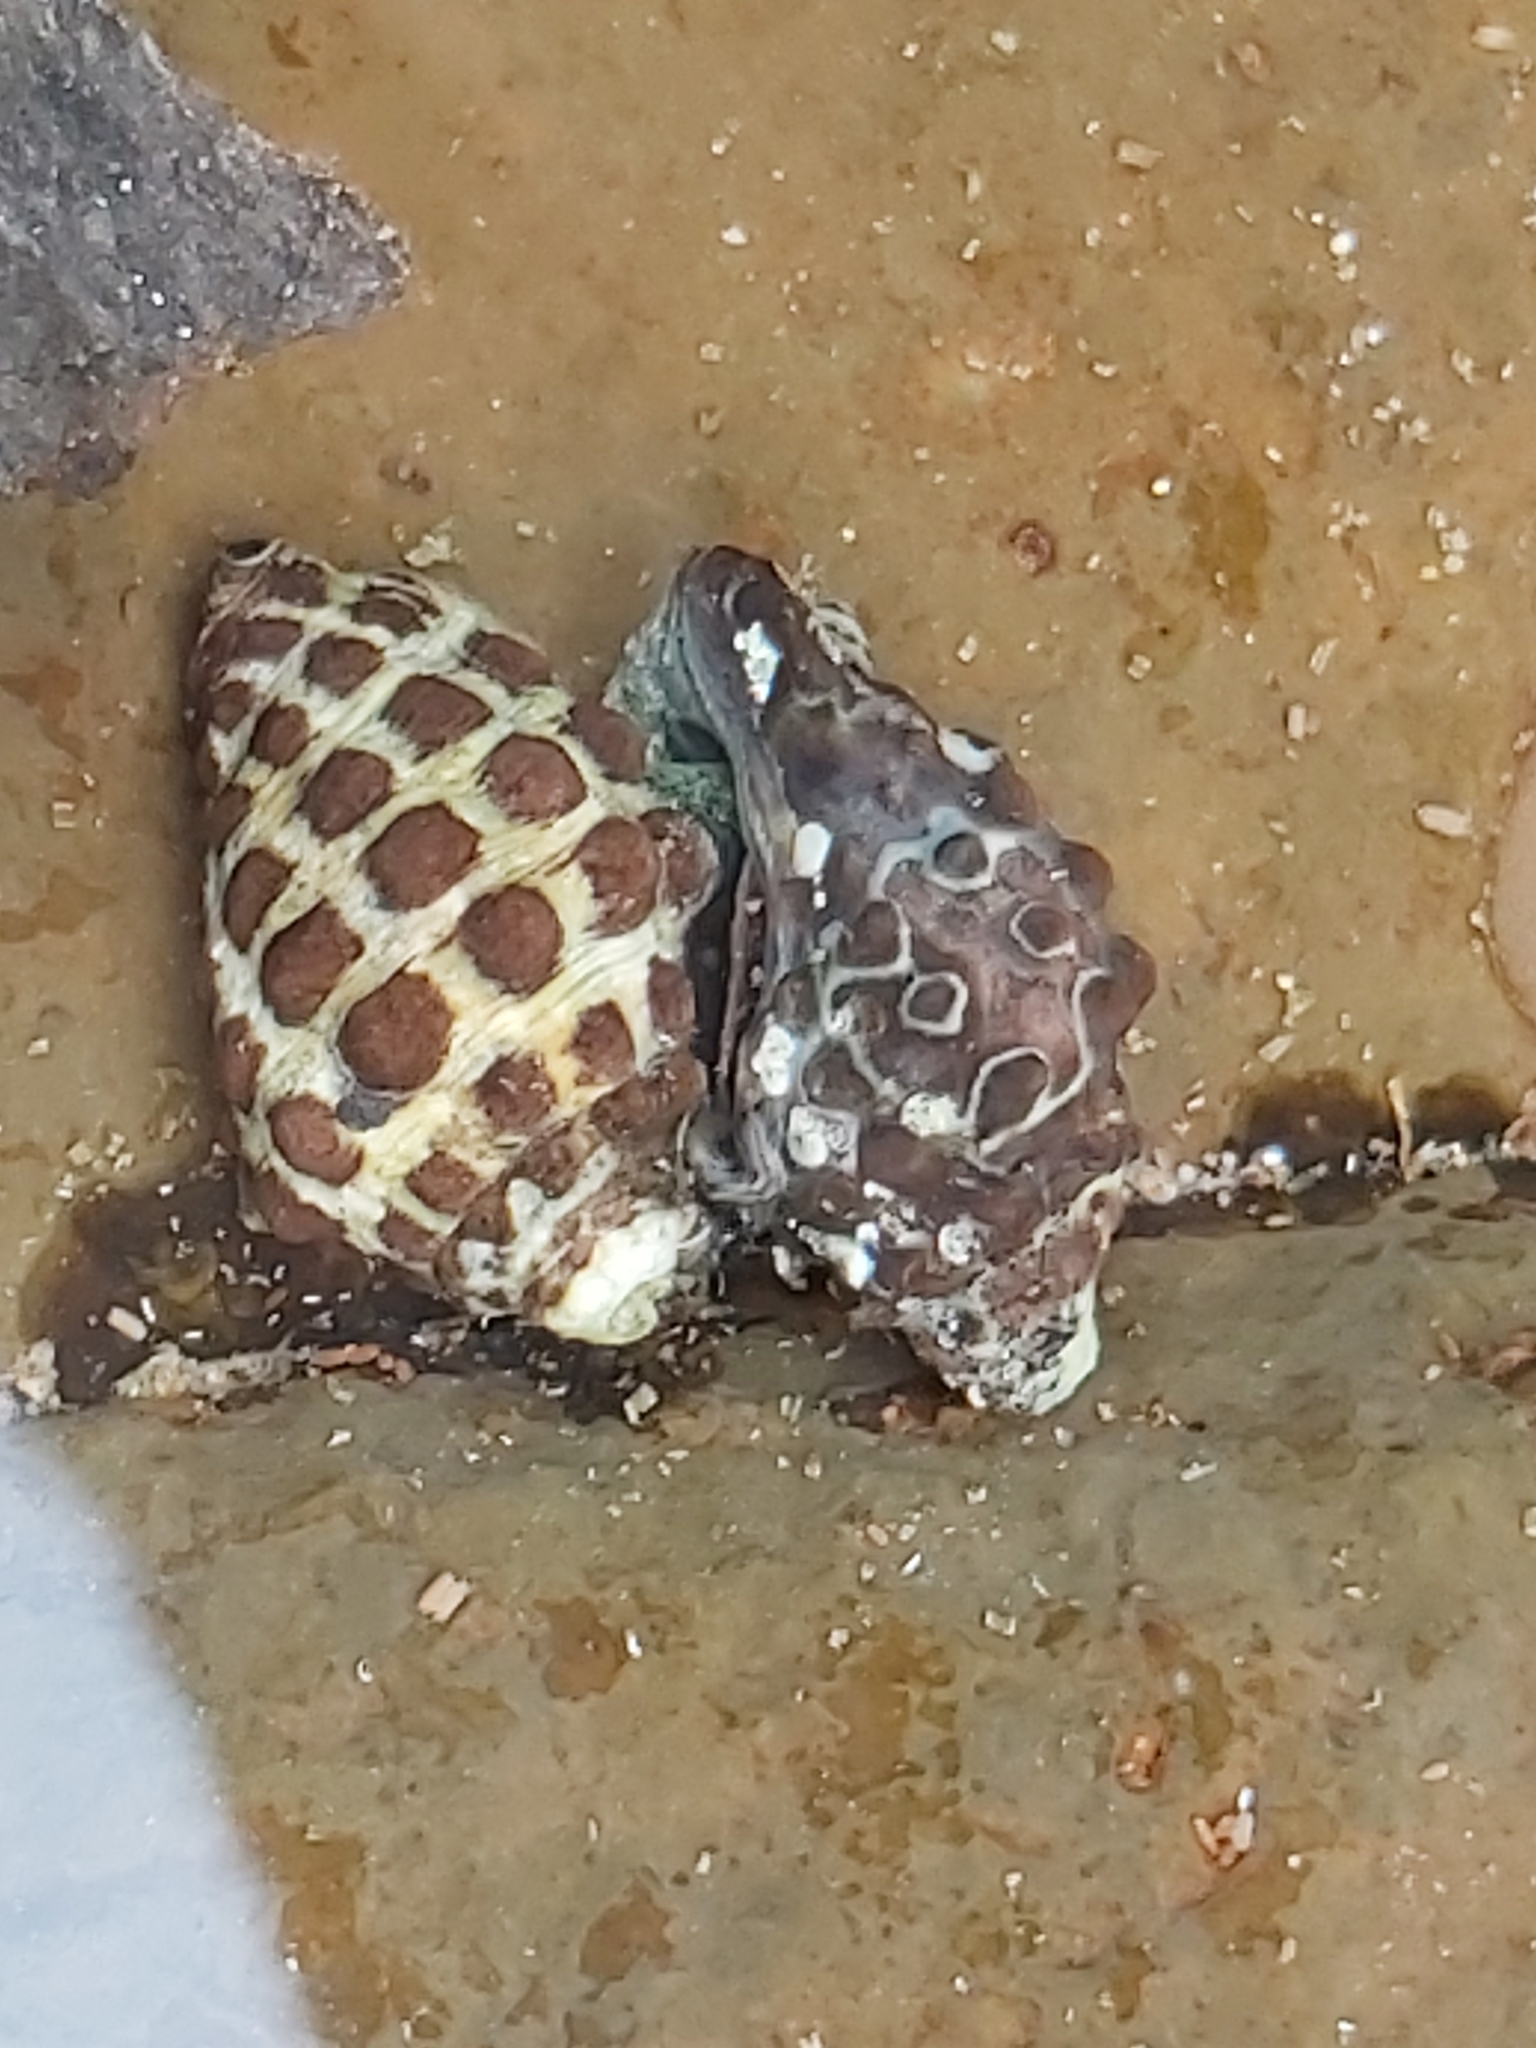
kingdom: Animalia
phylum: Mollusca
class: Gastropoda
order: Neogastropoda
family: Muricidae
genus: Tenguella
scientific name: Tenguella marginalba
